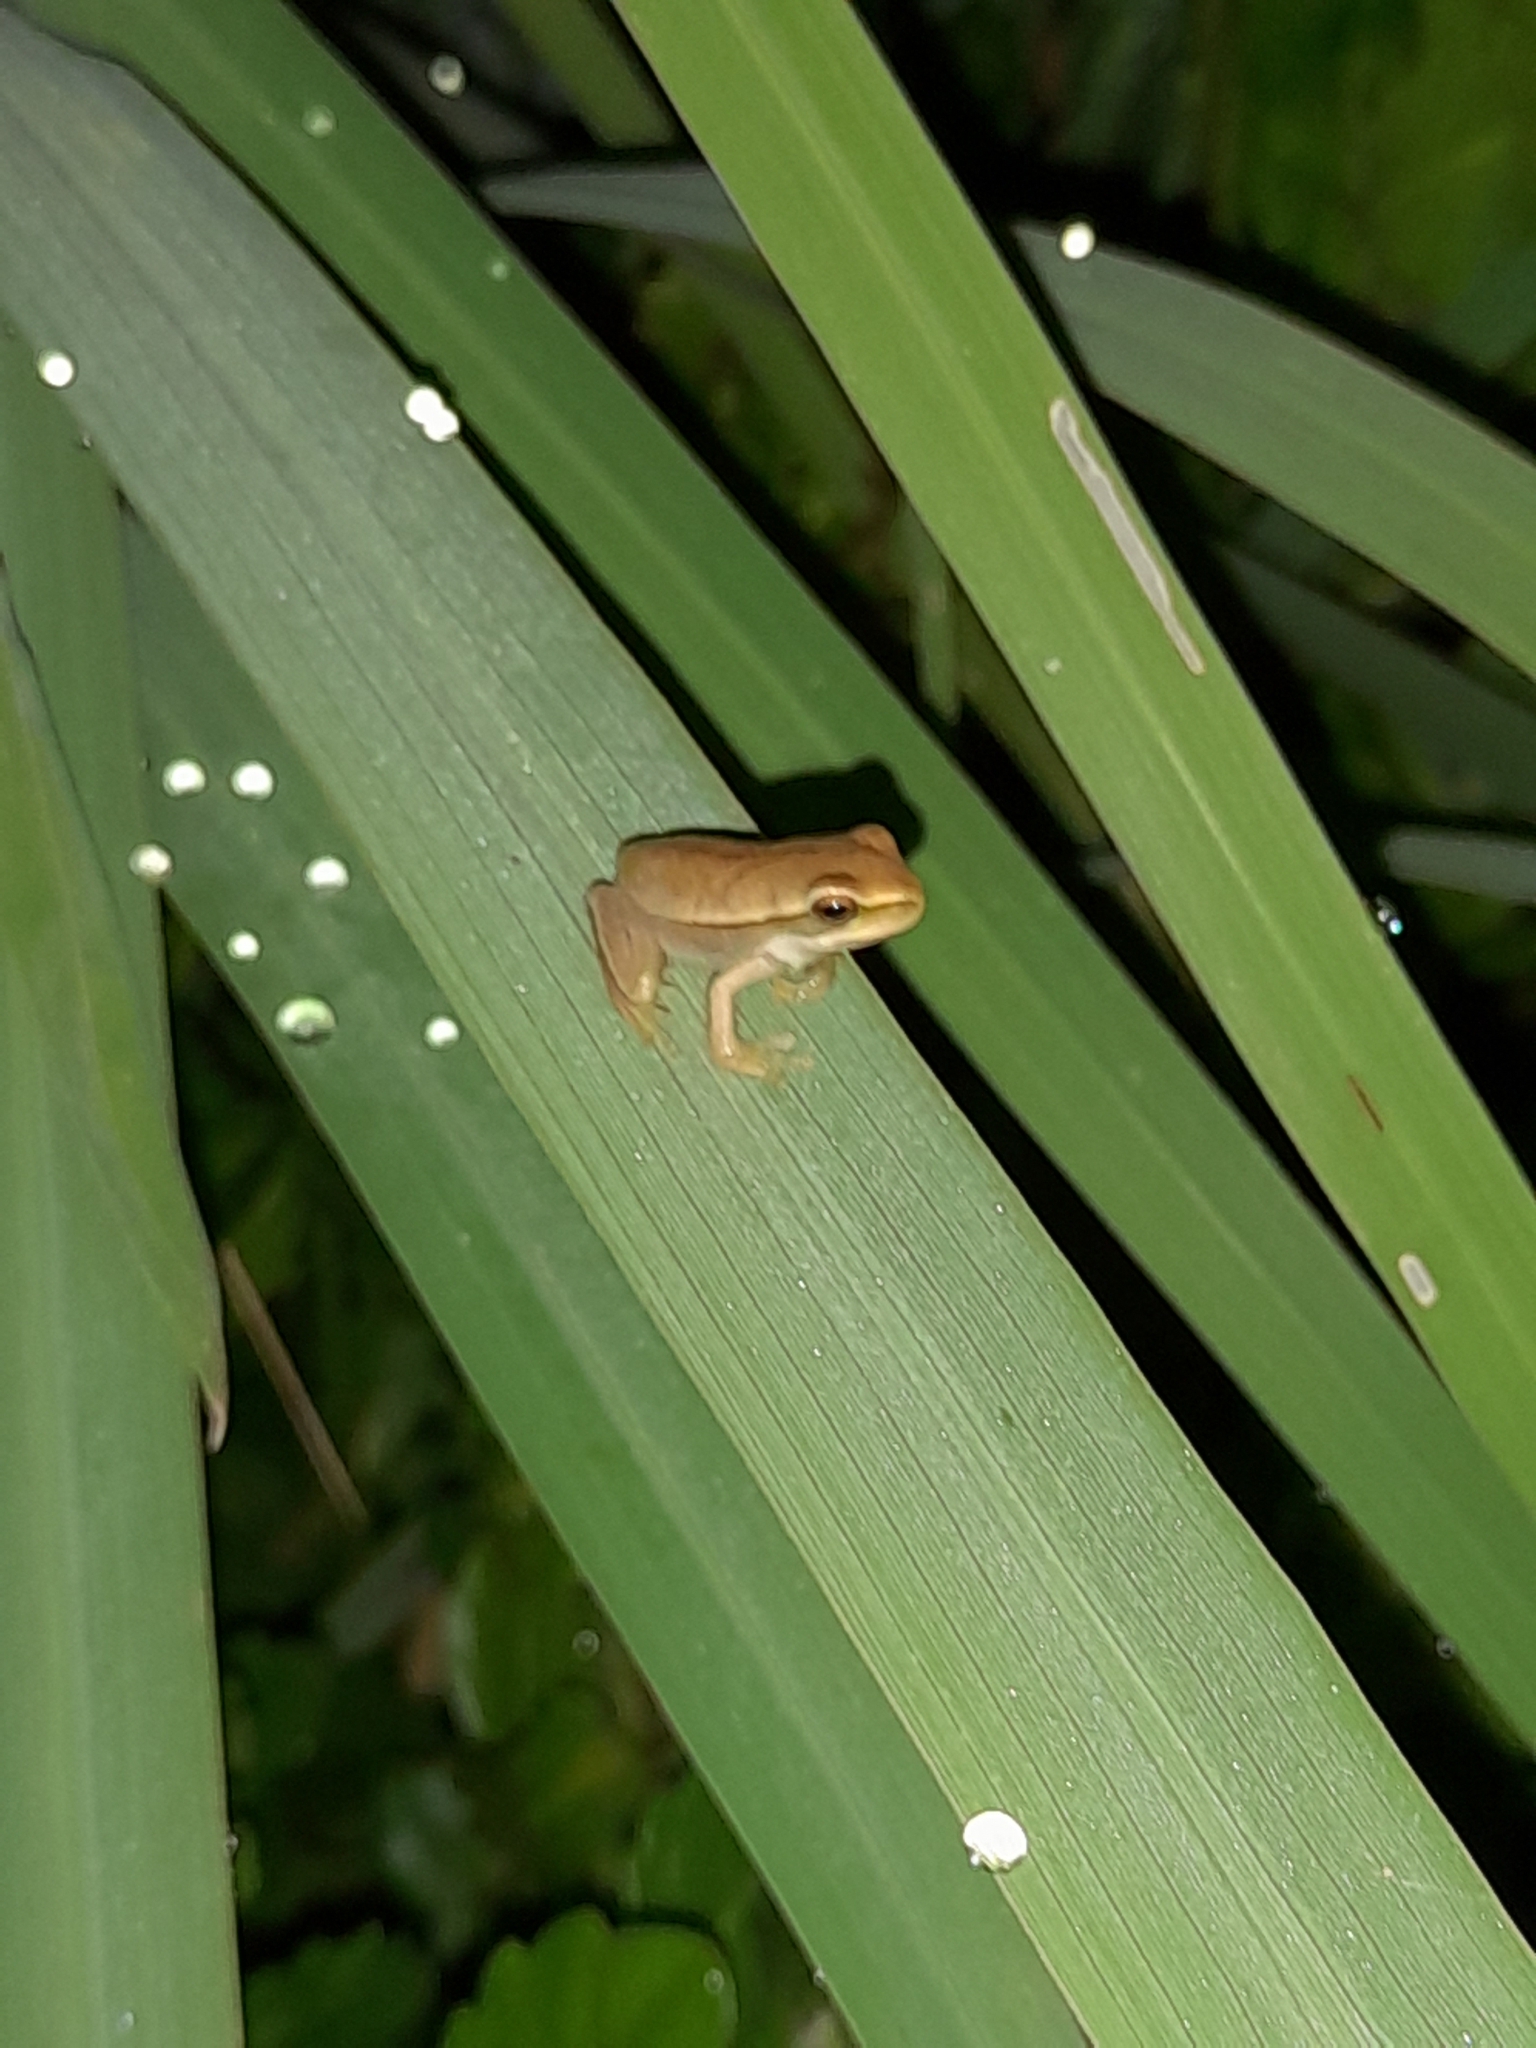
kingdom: Animalia
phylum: Chordata
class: Amphibia
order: Anura
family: Hylidae
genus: Boana
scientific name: Boana pulchella
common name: Montevideo treefrog
